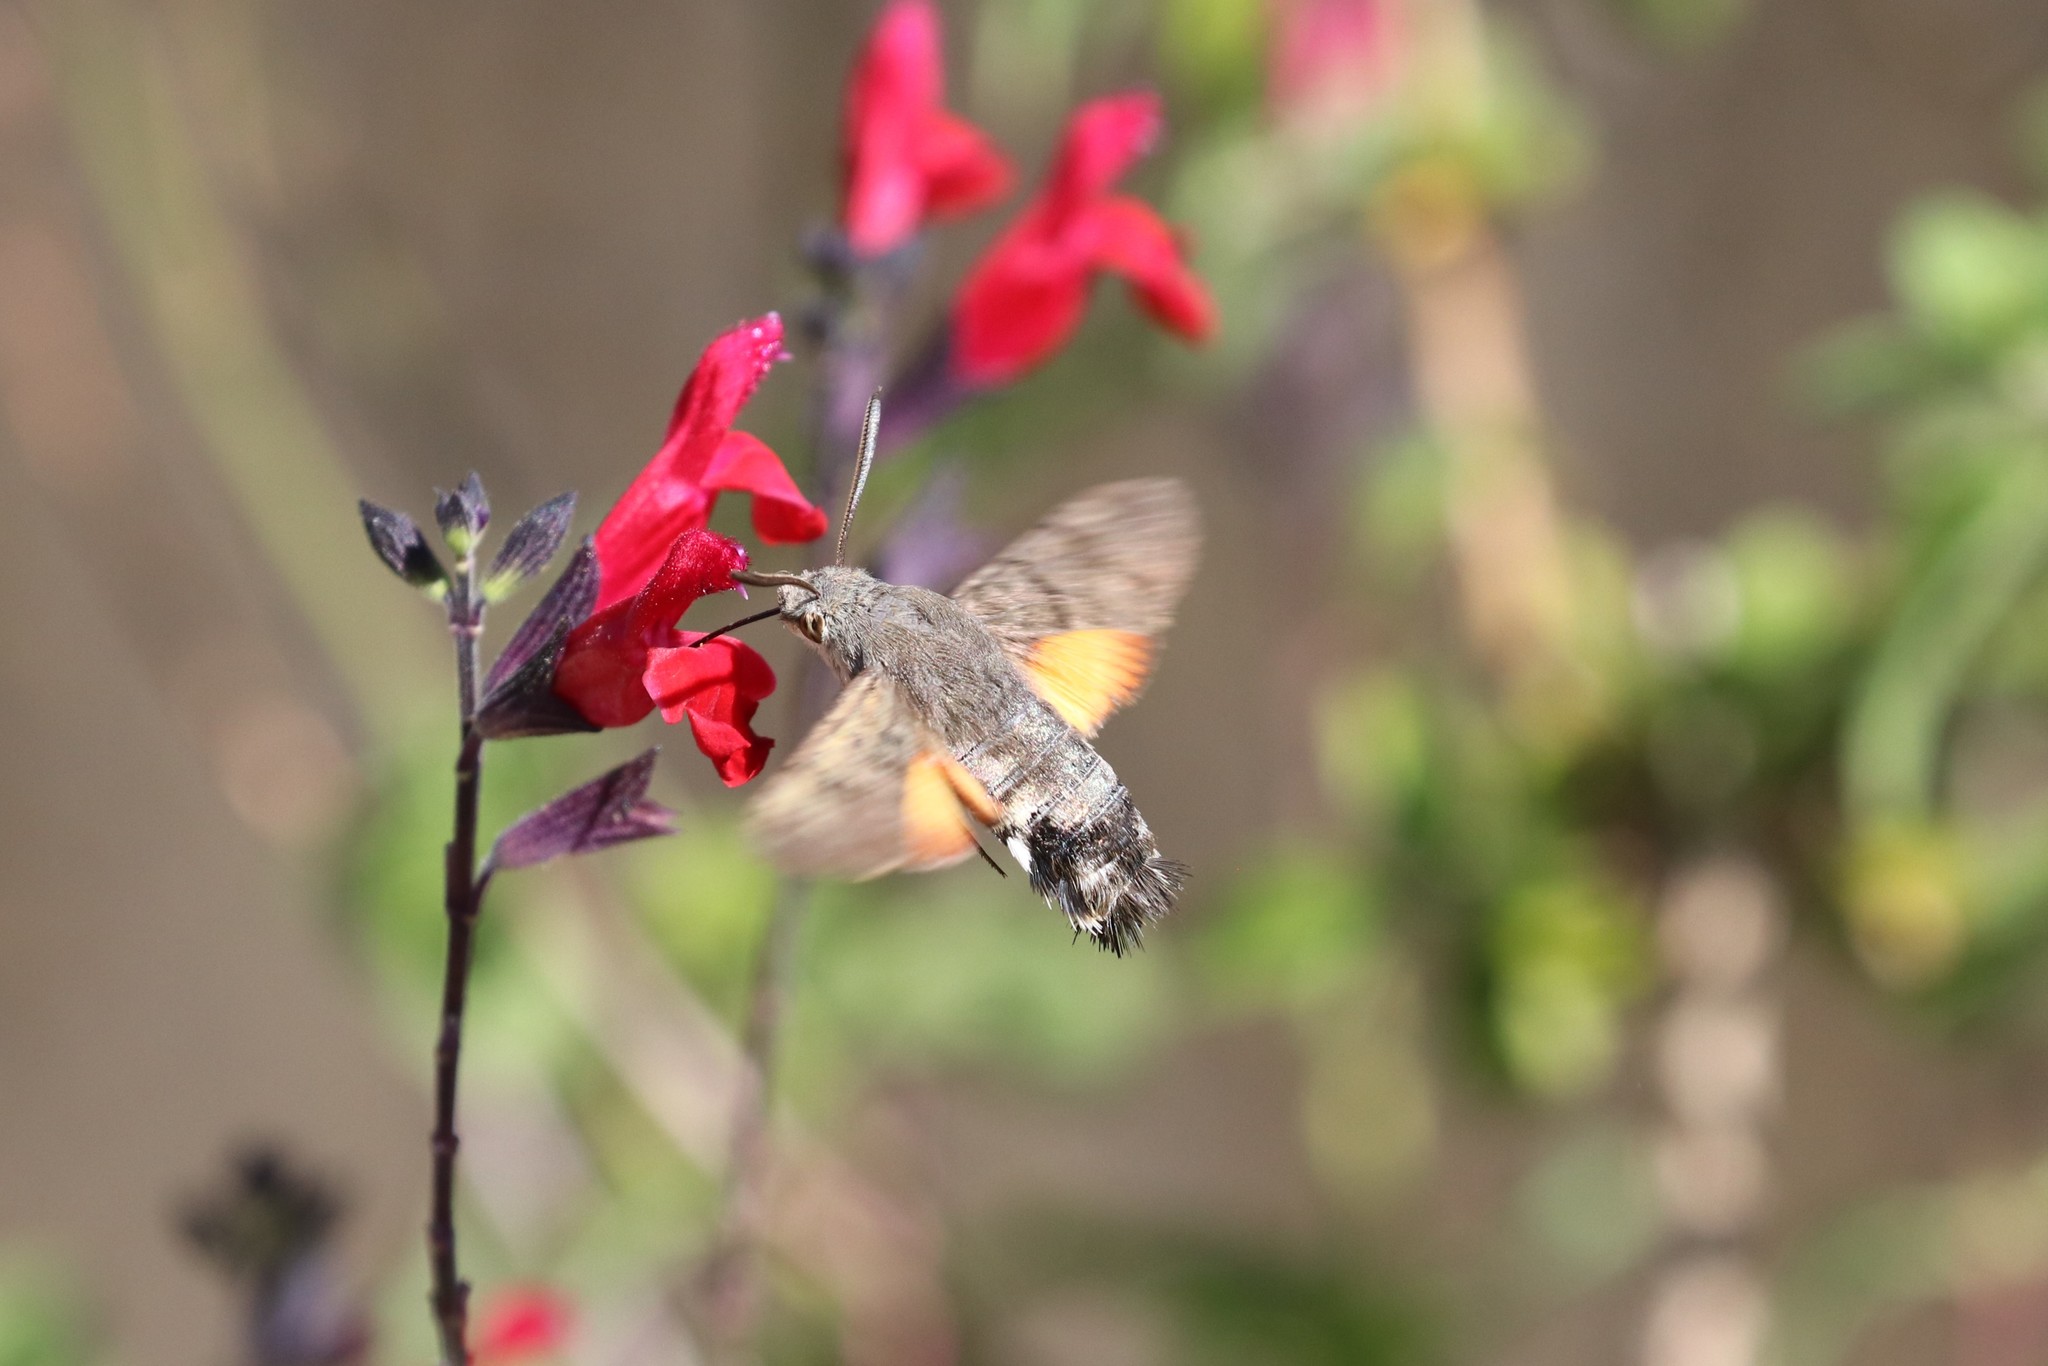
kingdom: Animalia
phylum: Arthropoda
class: Insecta
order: Lepidoptera
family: Sphingidae
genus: Macroglossum
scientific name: Macroglossum stellatarum
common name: Humming-bird hawk-moth
